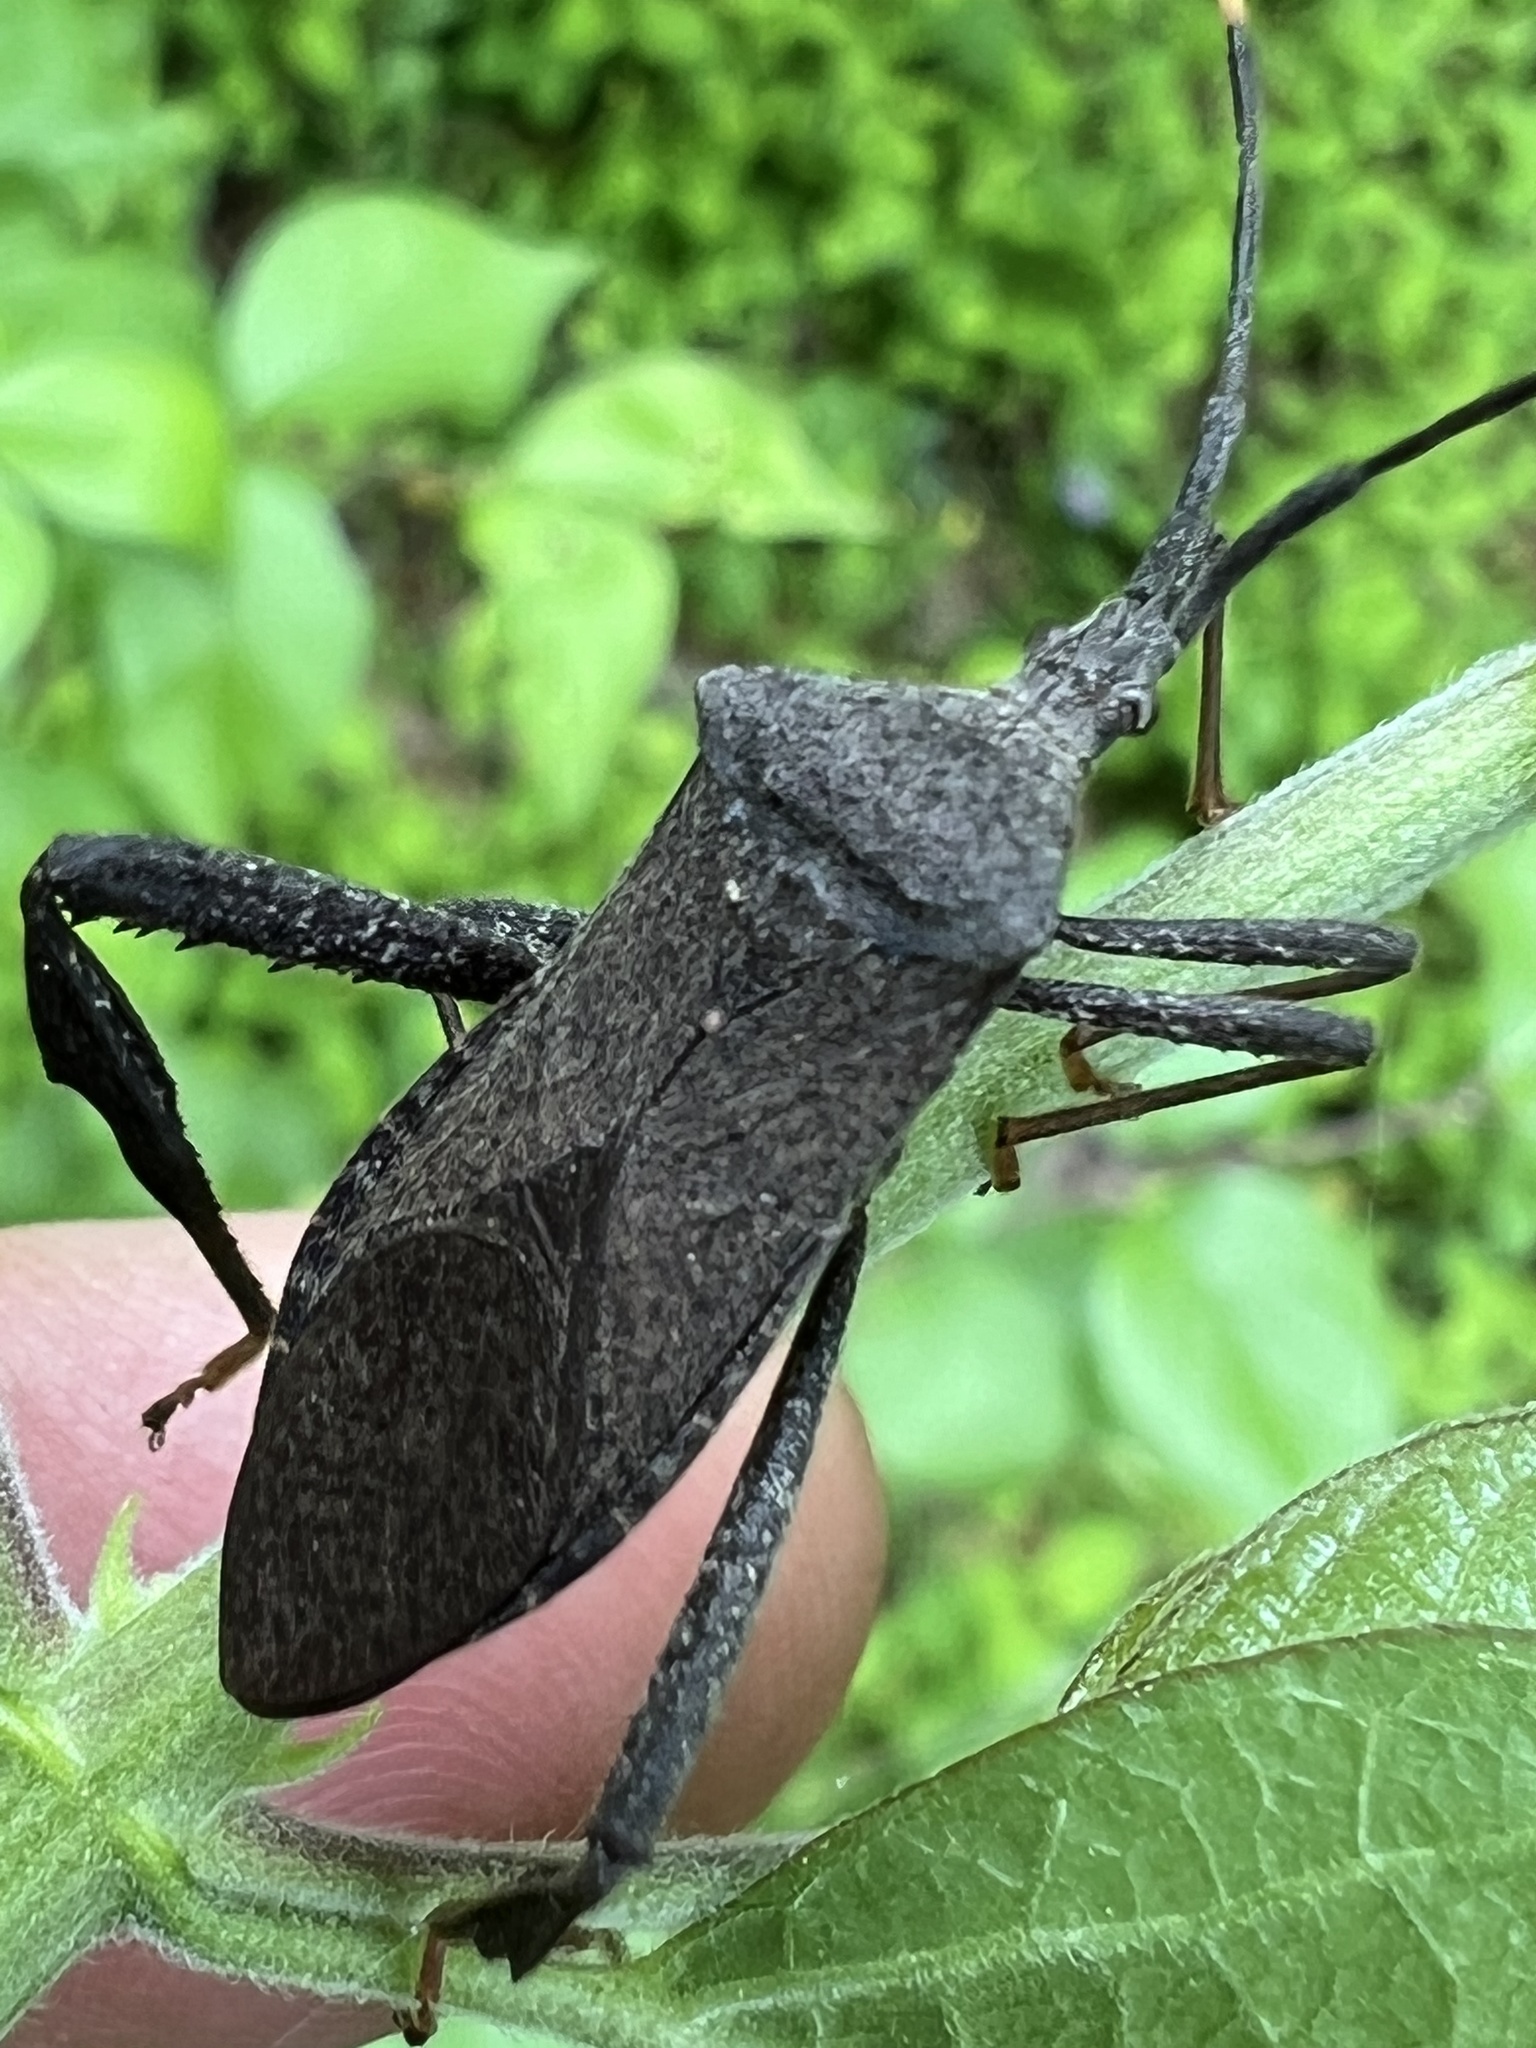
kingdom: Animalia
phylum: Arthropoda
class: Insecta
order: Hemiptera
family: Coreidae
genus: Acanthocephala
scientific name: Acanthocephala terminalis
